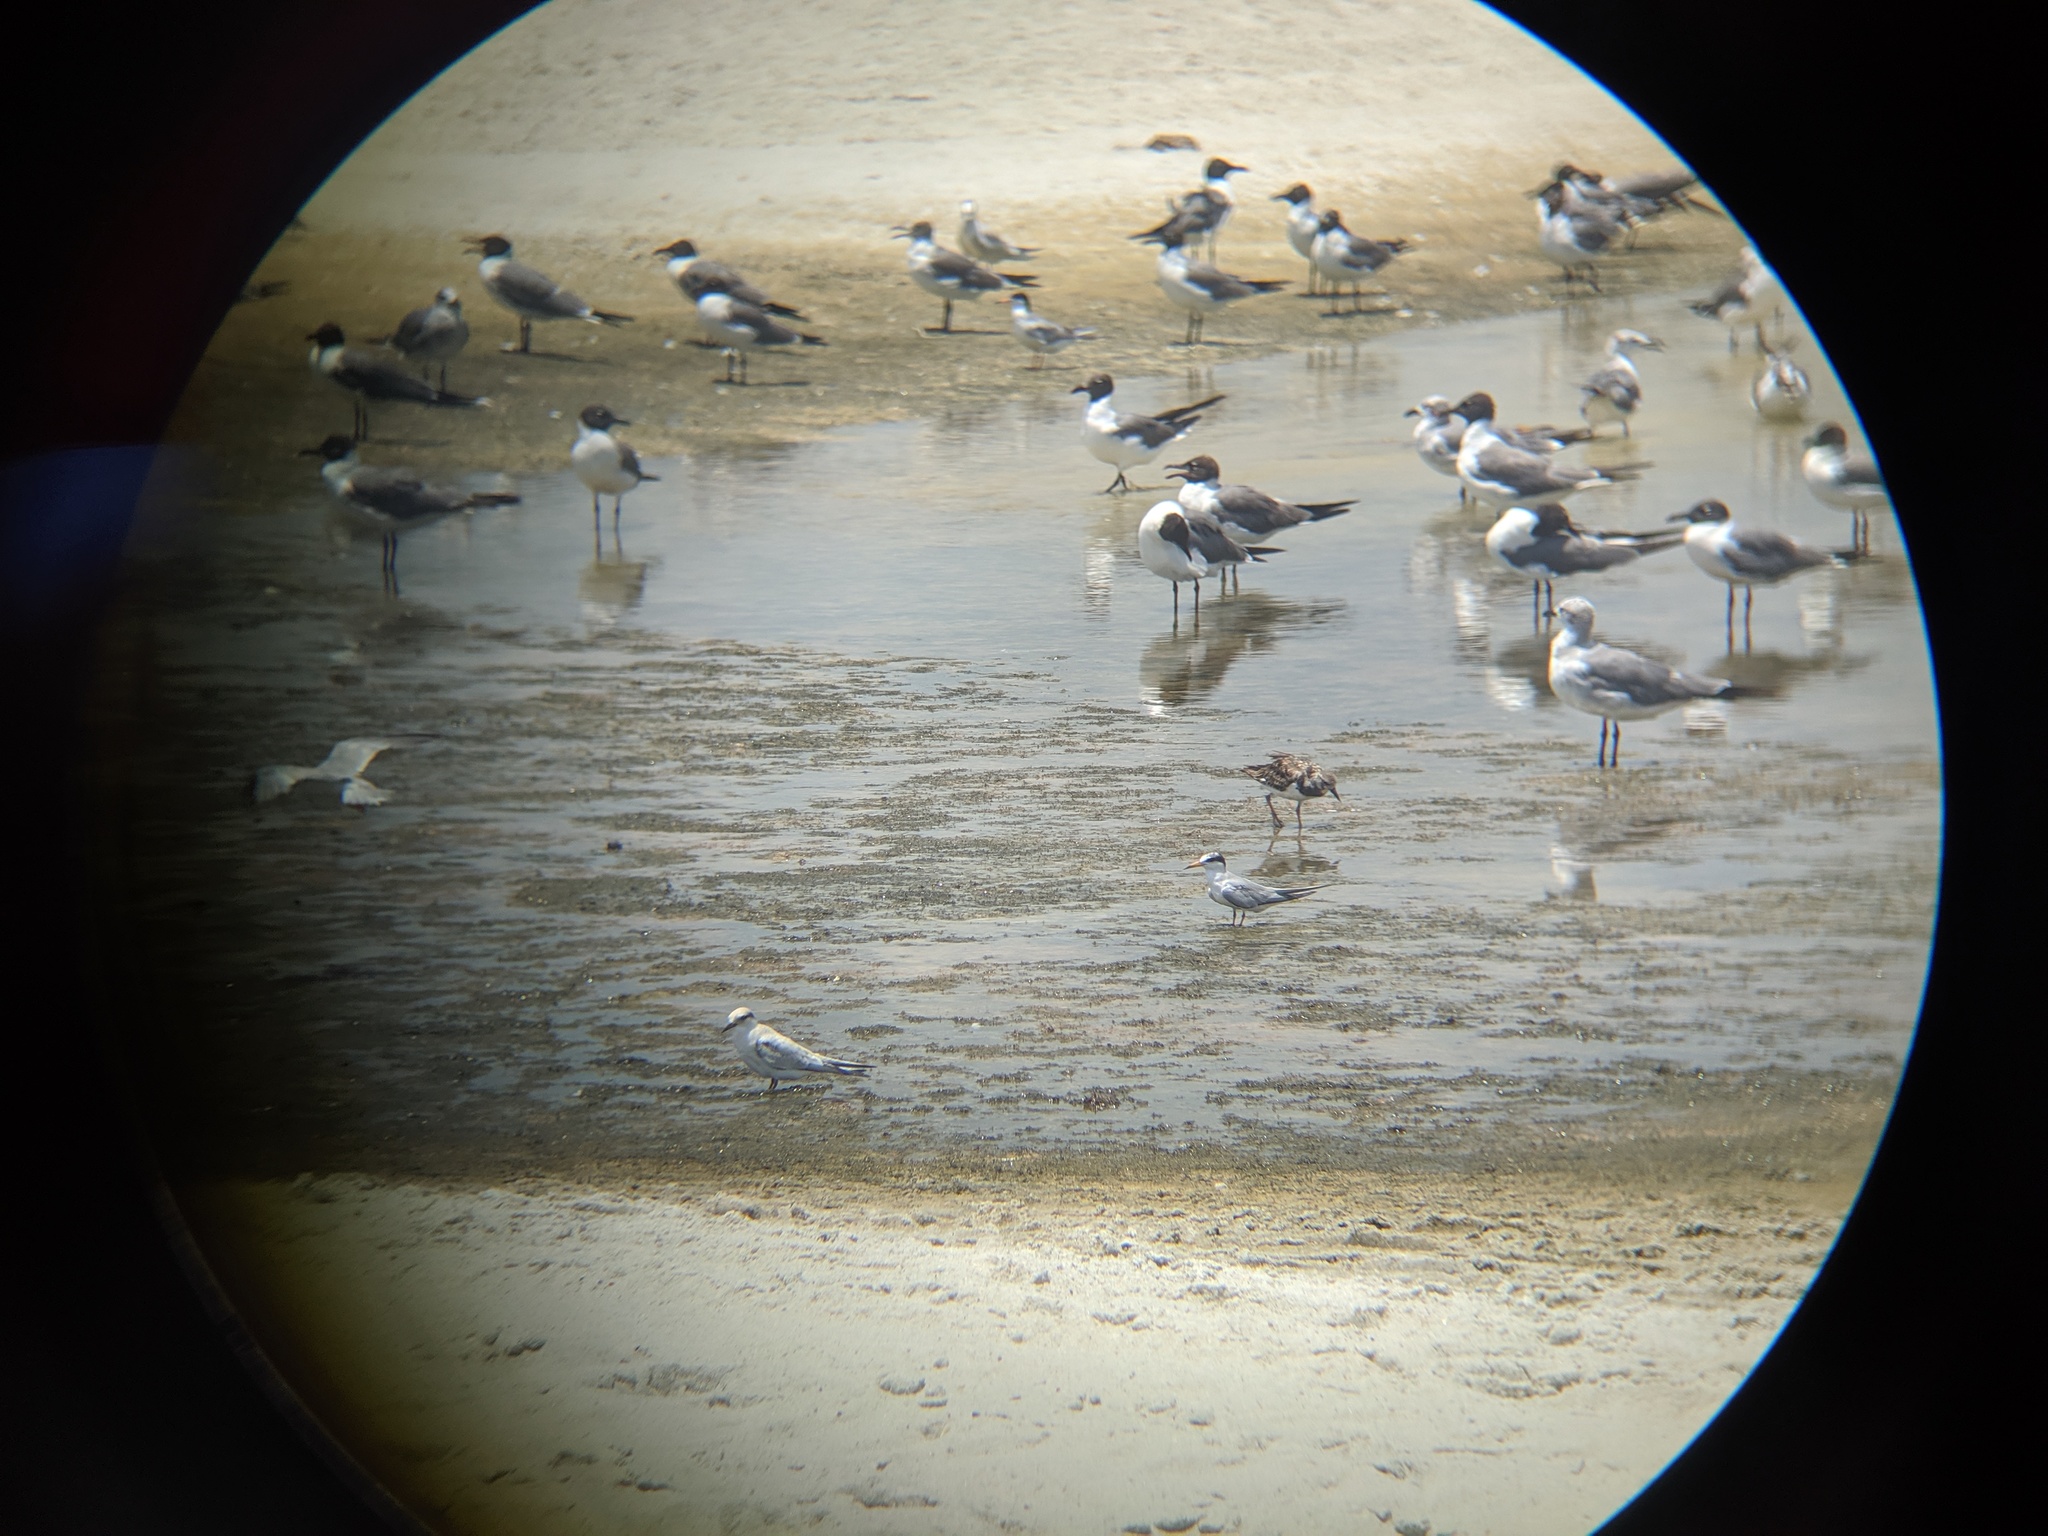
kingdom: Animalia
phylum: Chordata
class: Aves
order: Charadriiformes
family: Scolopacidae
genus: Arenaria
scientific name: Arenaria interpres
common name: Ruddy turnstone
